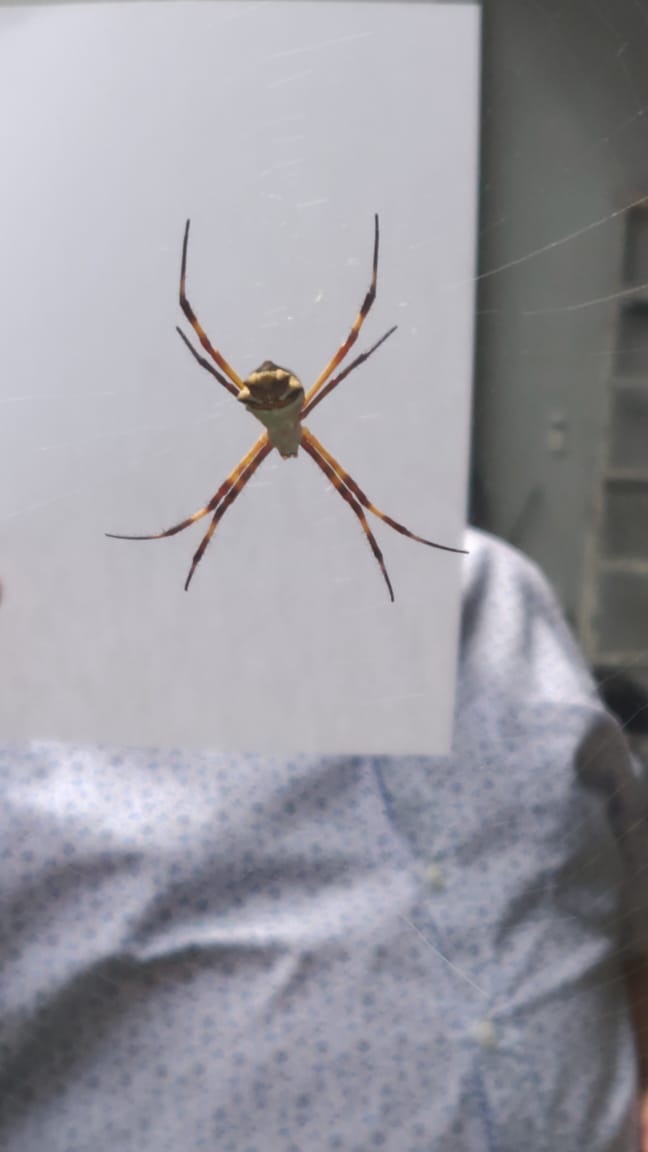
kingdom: Animalia
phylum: Arthropoda
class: Arachnida
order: Araneae
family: Araneidae
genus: Argiope
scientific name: Argiope argentata
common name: Orb weavers
